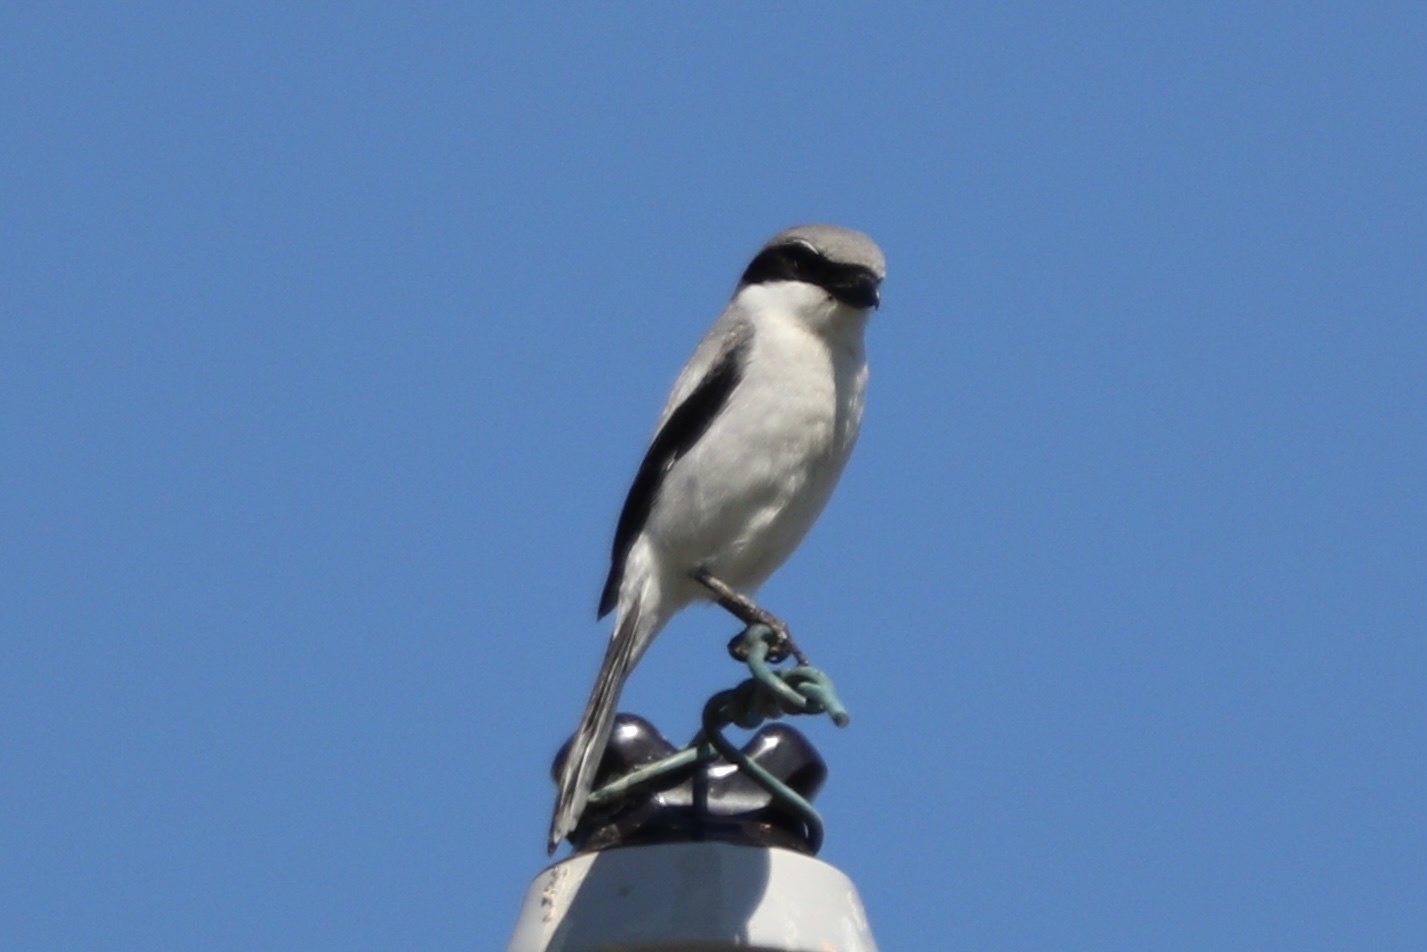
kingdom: Animalia
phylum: Chordata
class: Aves
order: Passeriformes
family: Laniidae
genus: Lanius
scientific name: Lanius ludovicianus
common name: Loggerhead shrike
